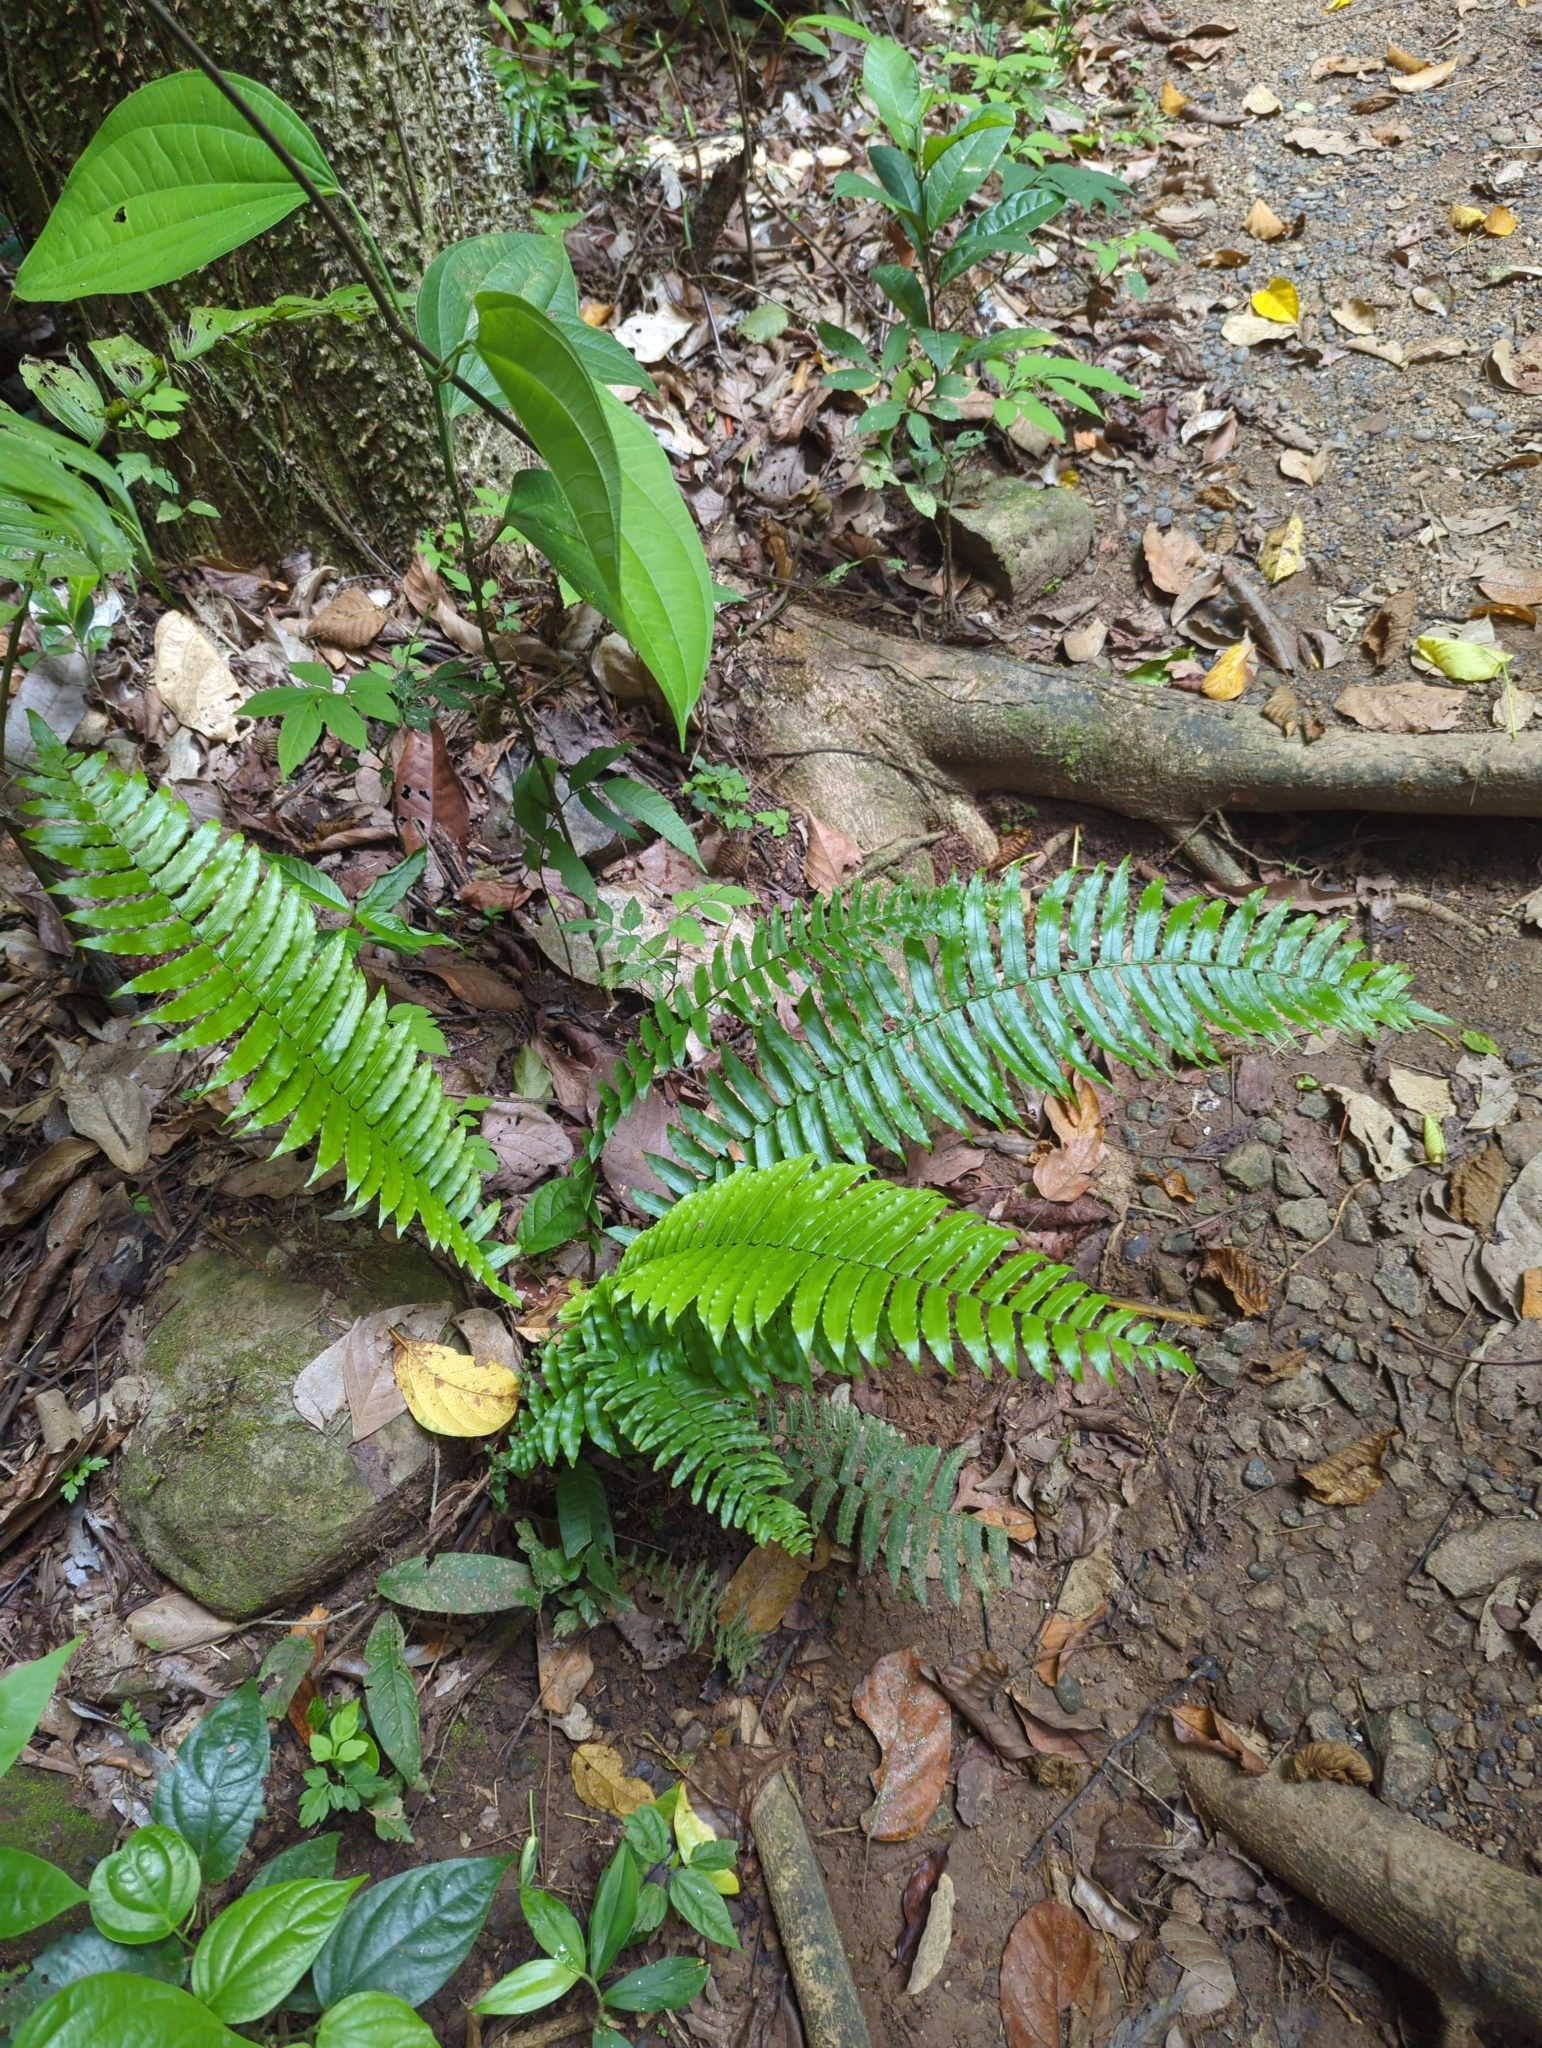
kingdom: Plantae
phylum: Tracheophyta
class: Polypodiopsida
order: Polypodiales
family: Lomariopsidaceae
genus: Cyclopeltis
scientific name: Cyclopeltis semicordata
